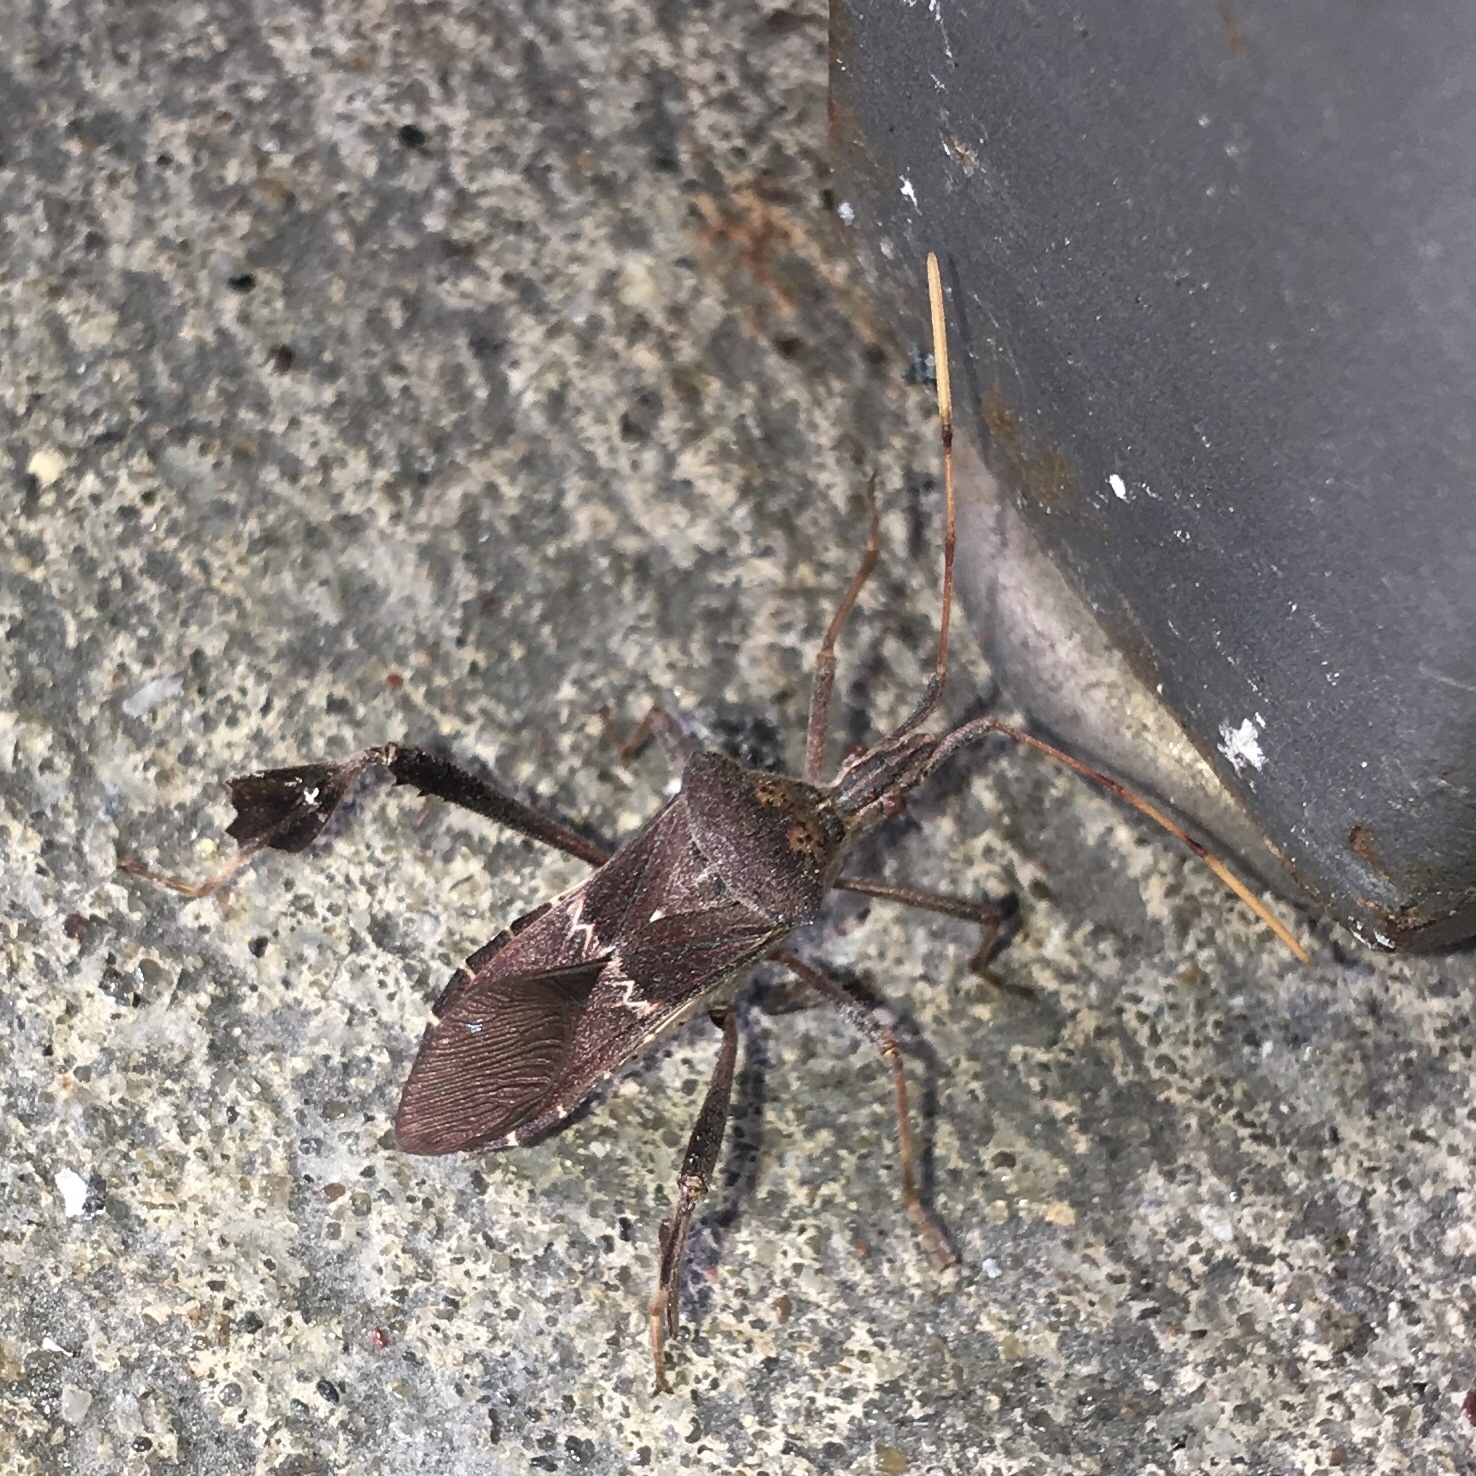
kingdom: Animalia
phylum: Arthropoda
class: Insecta
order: Hemiptera
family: Coreidae
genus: Leptoglossus
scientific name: Leptoglossus zonatus
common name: Large-legged bug
